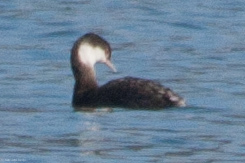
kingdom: Animalia
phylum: Chordata
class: Aves
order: Podicipediformes
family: Podicipedidae
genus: Podiceps
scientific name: Podiceps auritus
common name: Horned grebe
